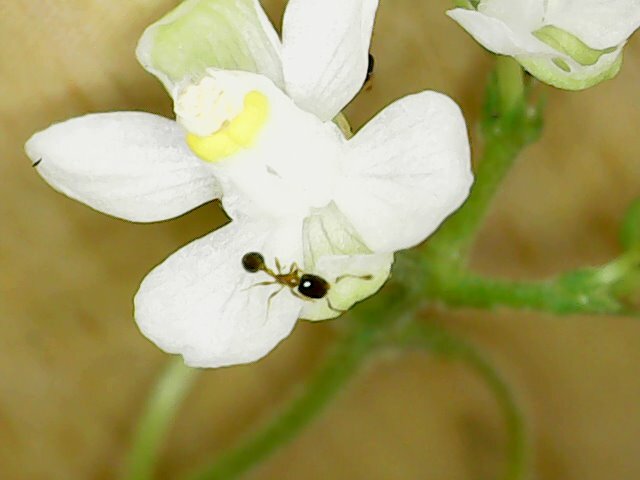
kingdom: Animalia
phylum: Arthropoda
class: Insecta
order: Hymenoptera
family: Formicidae
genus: Monomorium
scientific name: Monomorium floricola
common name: Bicolored trailing ant
